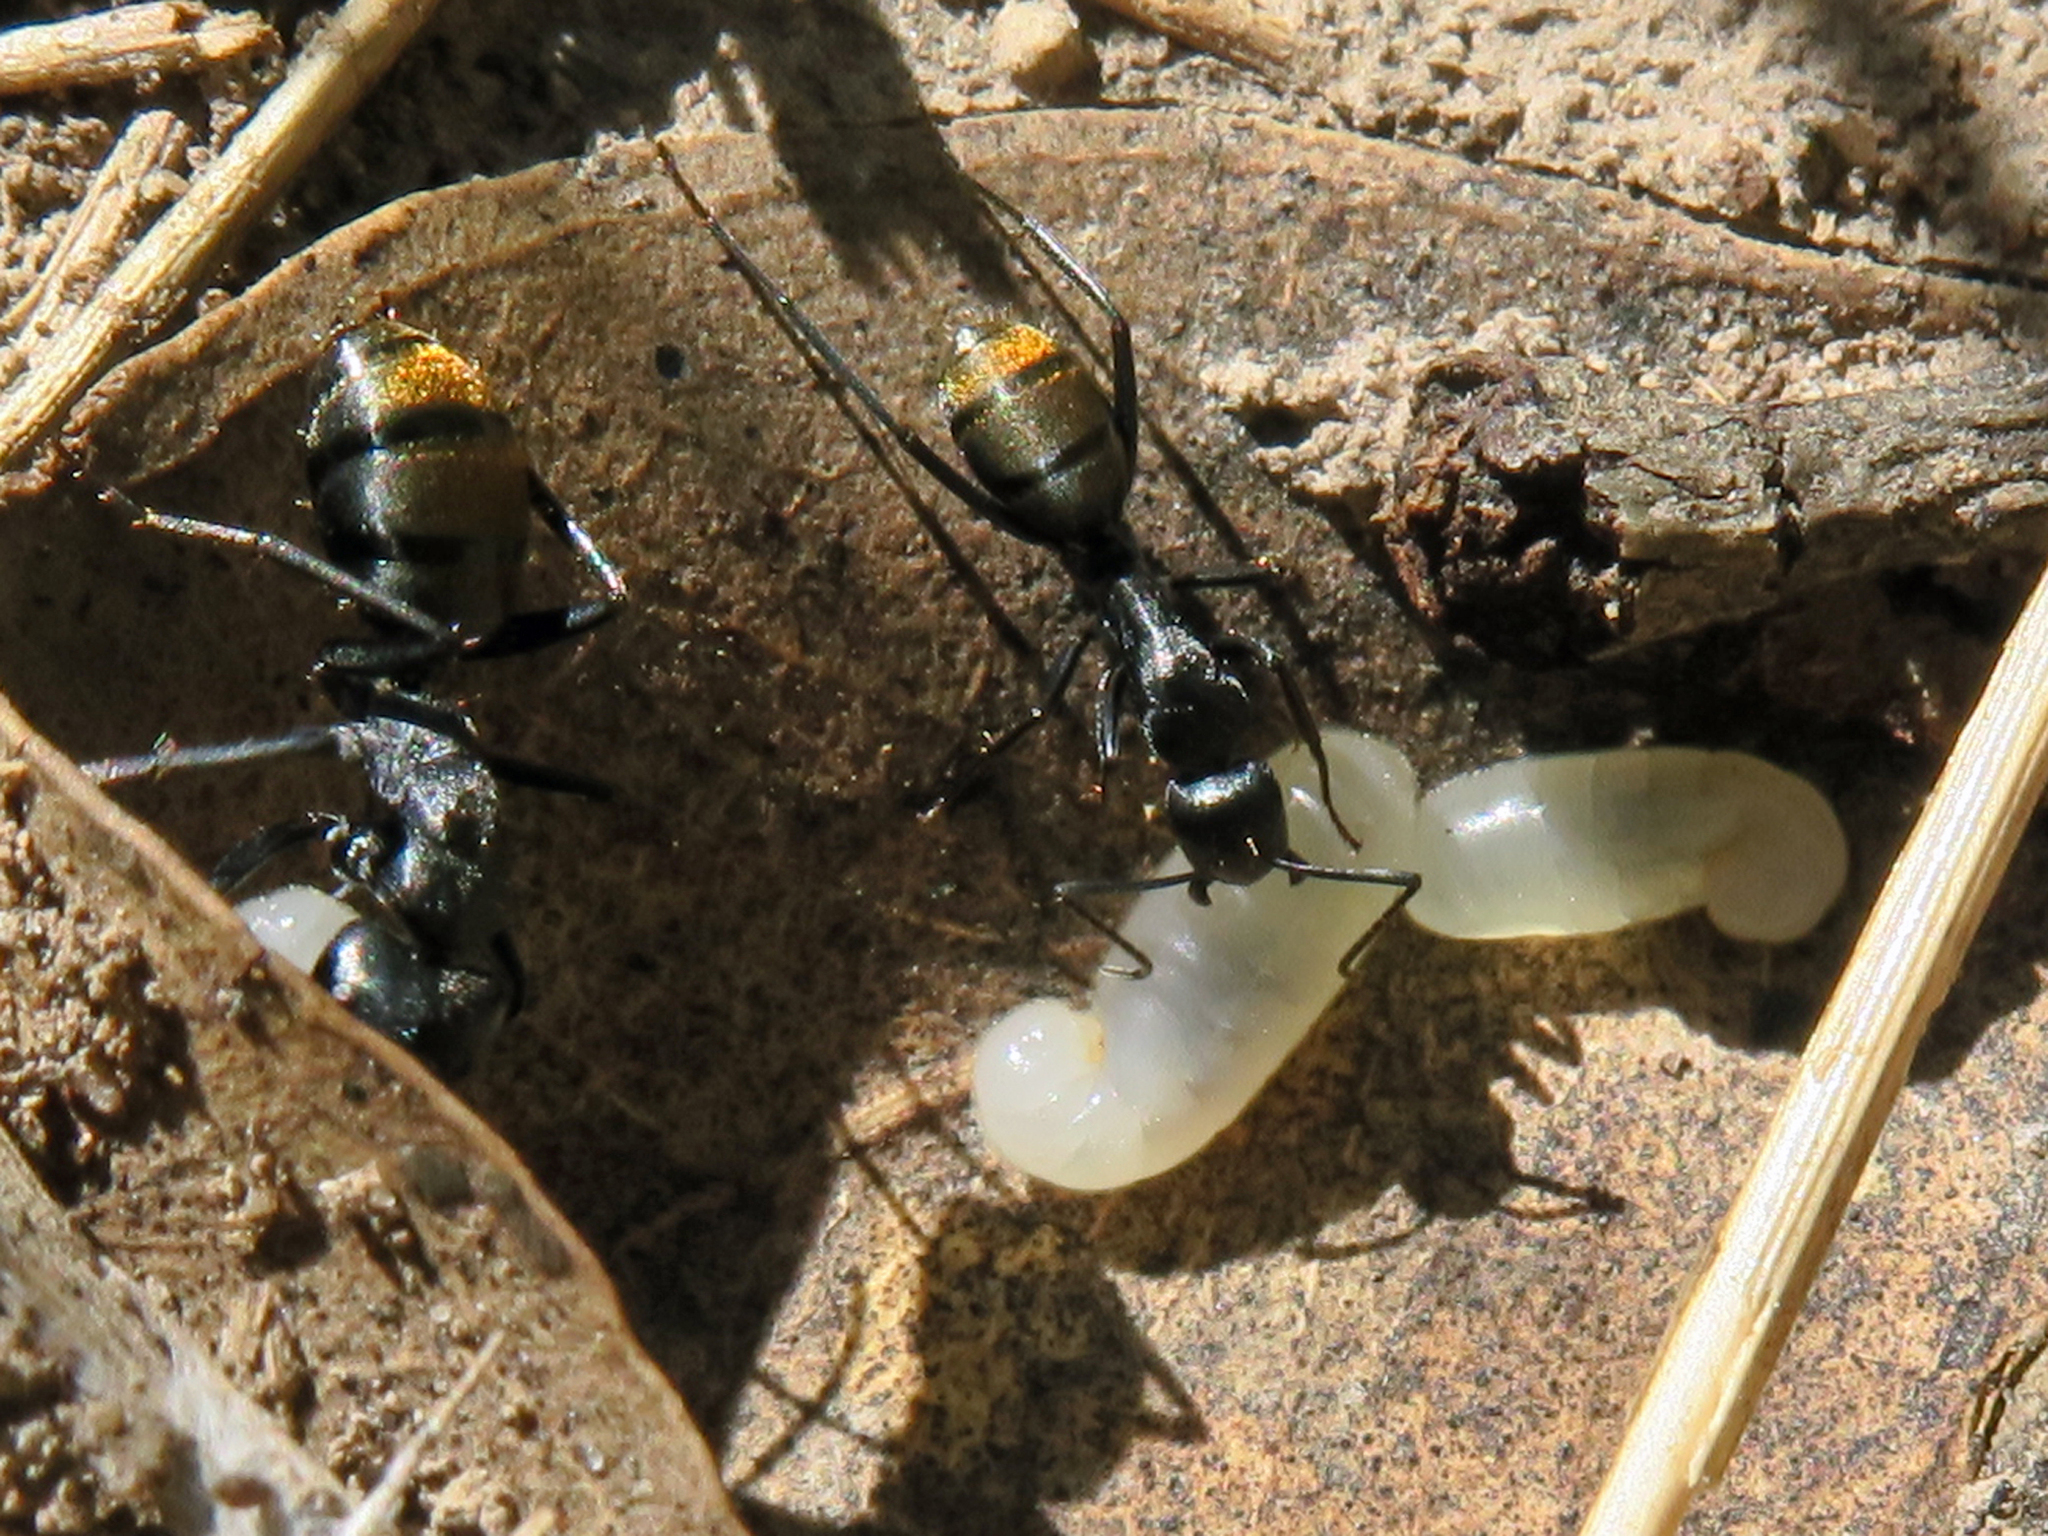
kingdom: Animalia
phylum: Arthropoda
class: Insecta
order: Hymenoptera
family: Formicidae
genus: Camponotus
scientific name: Camponotus aeneopilosus
